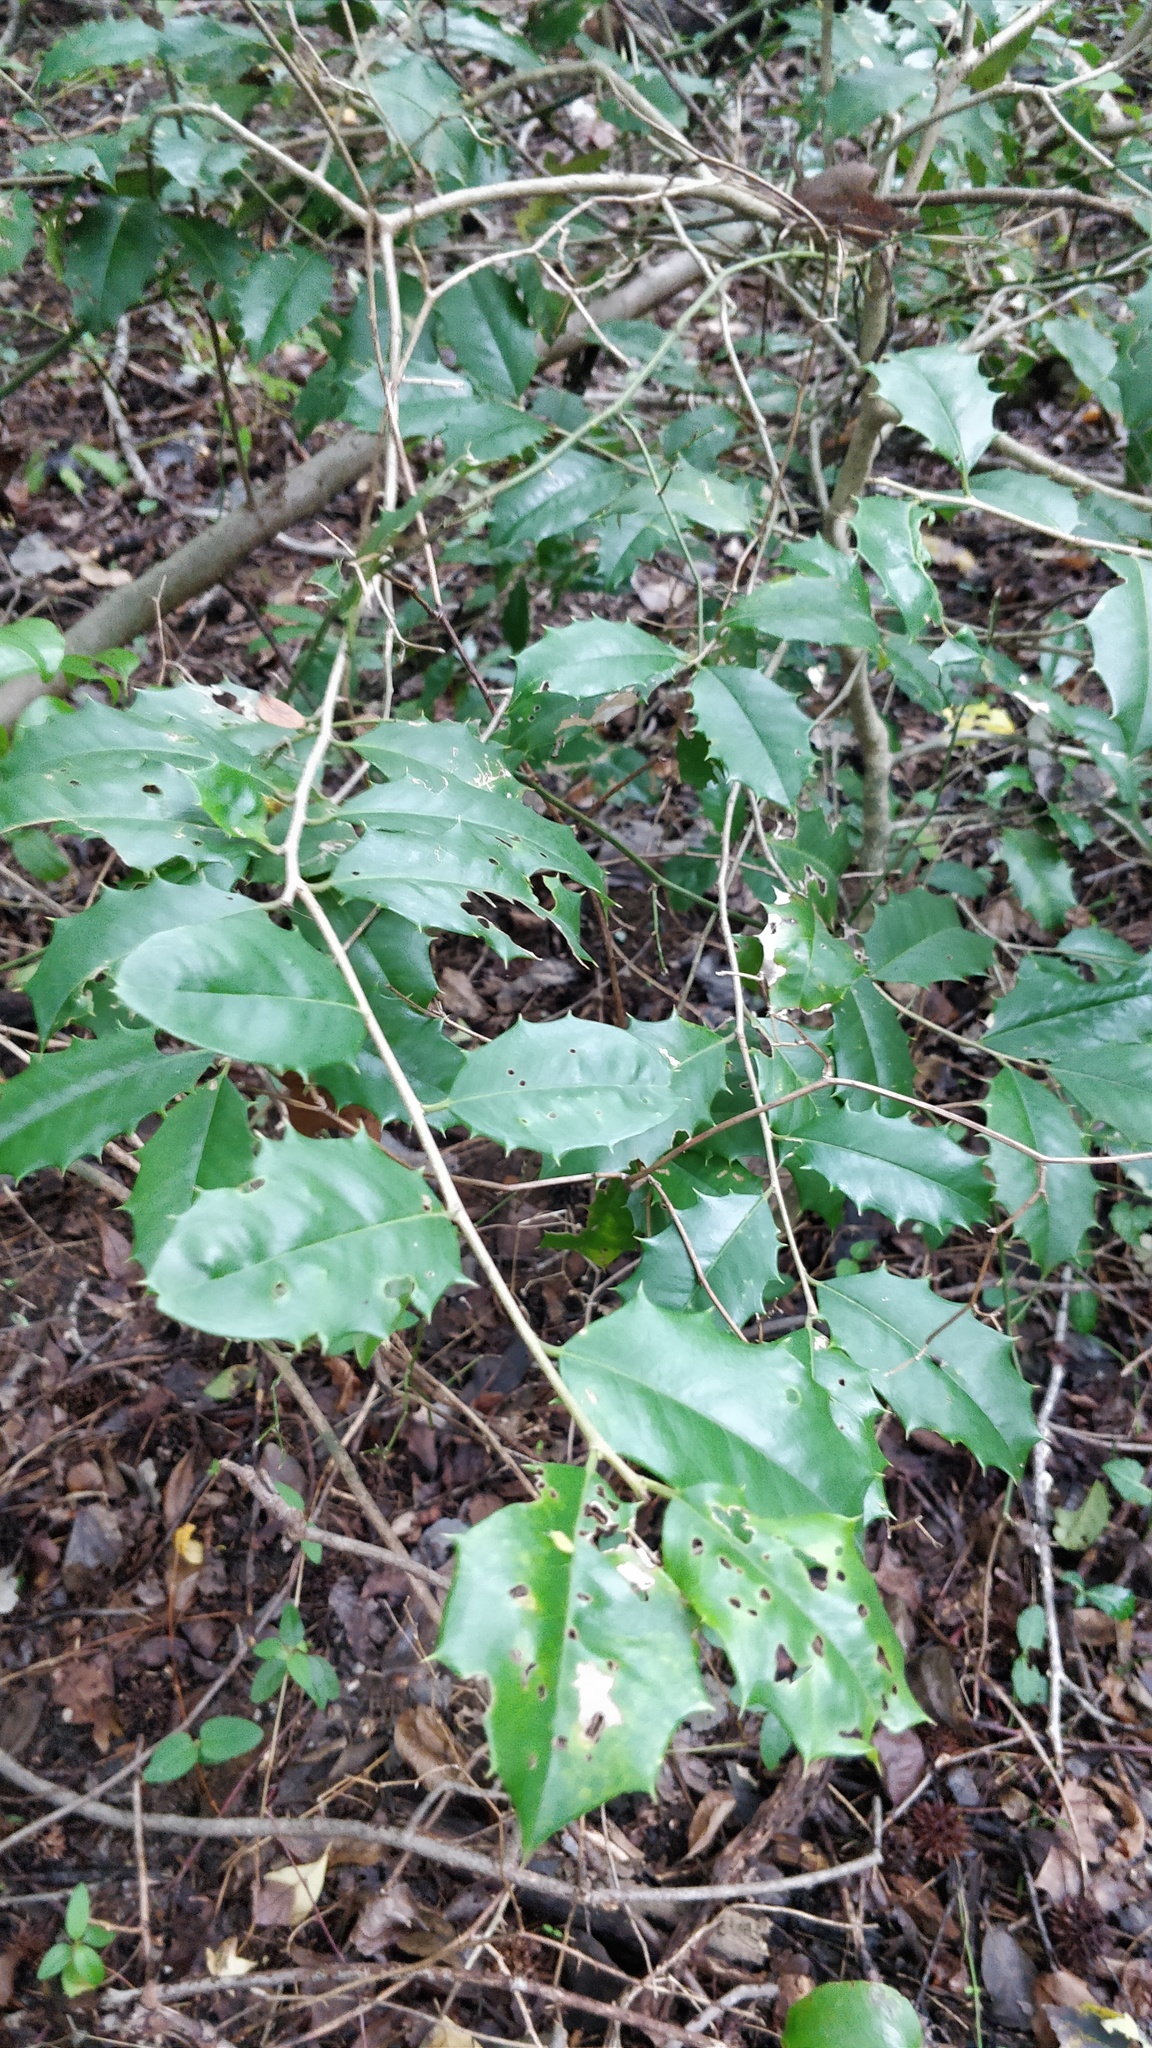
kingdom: Plantae
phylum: Tracheophyta
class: Magnoliopsida
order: Aquifoliales
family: Aquifoliaceae
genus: Ilex
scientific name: Ilex opaca
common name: American holly
